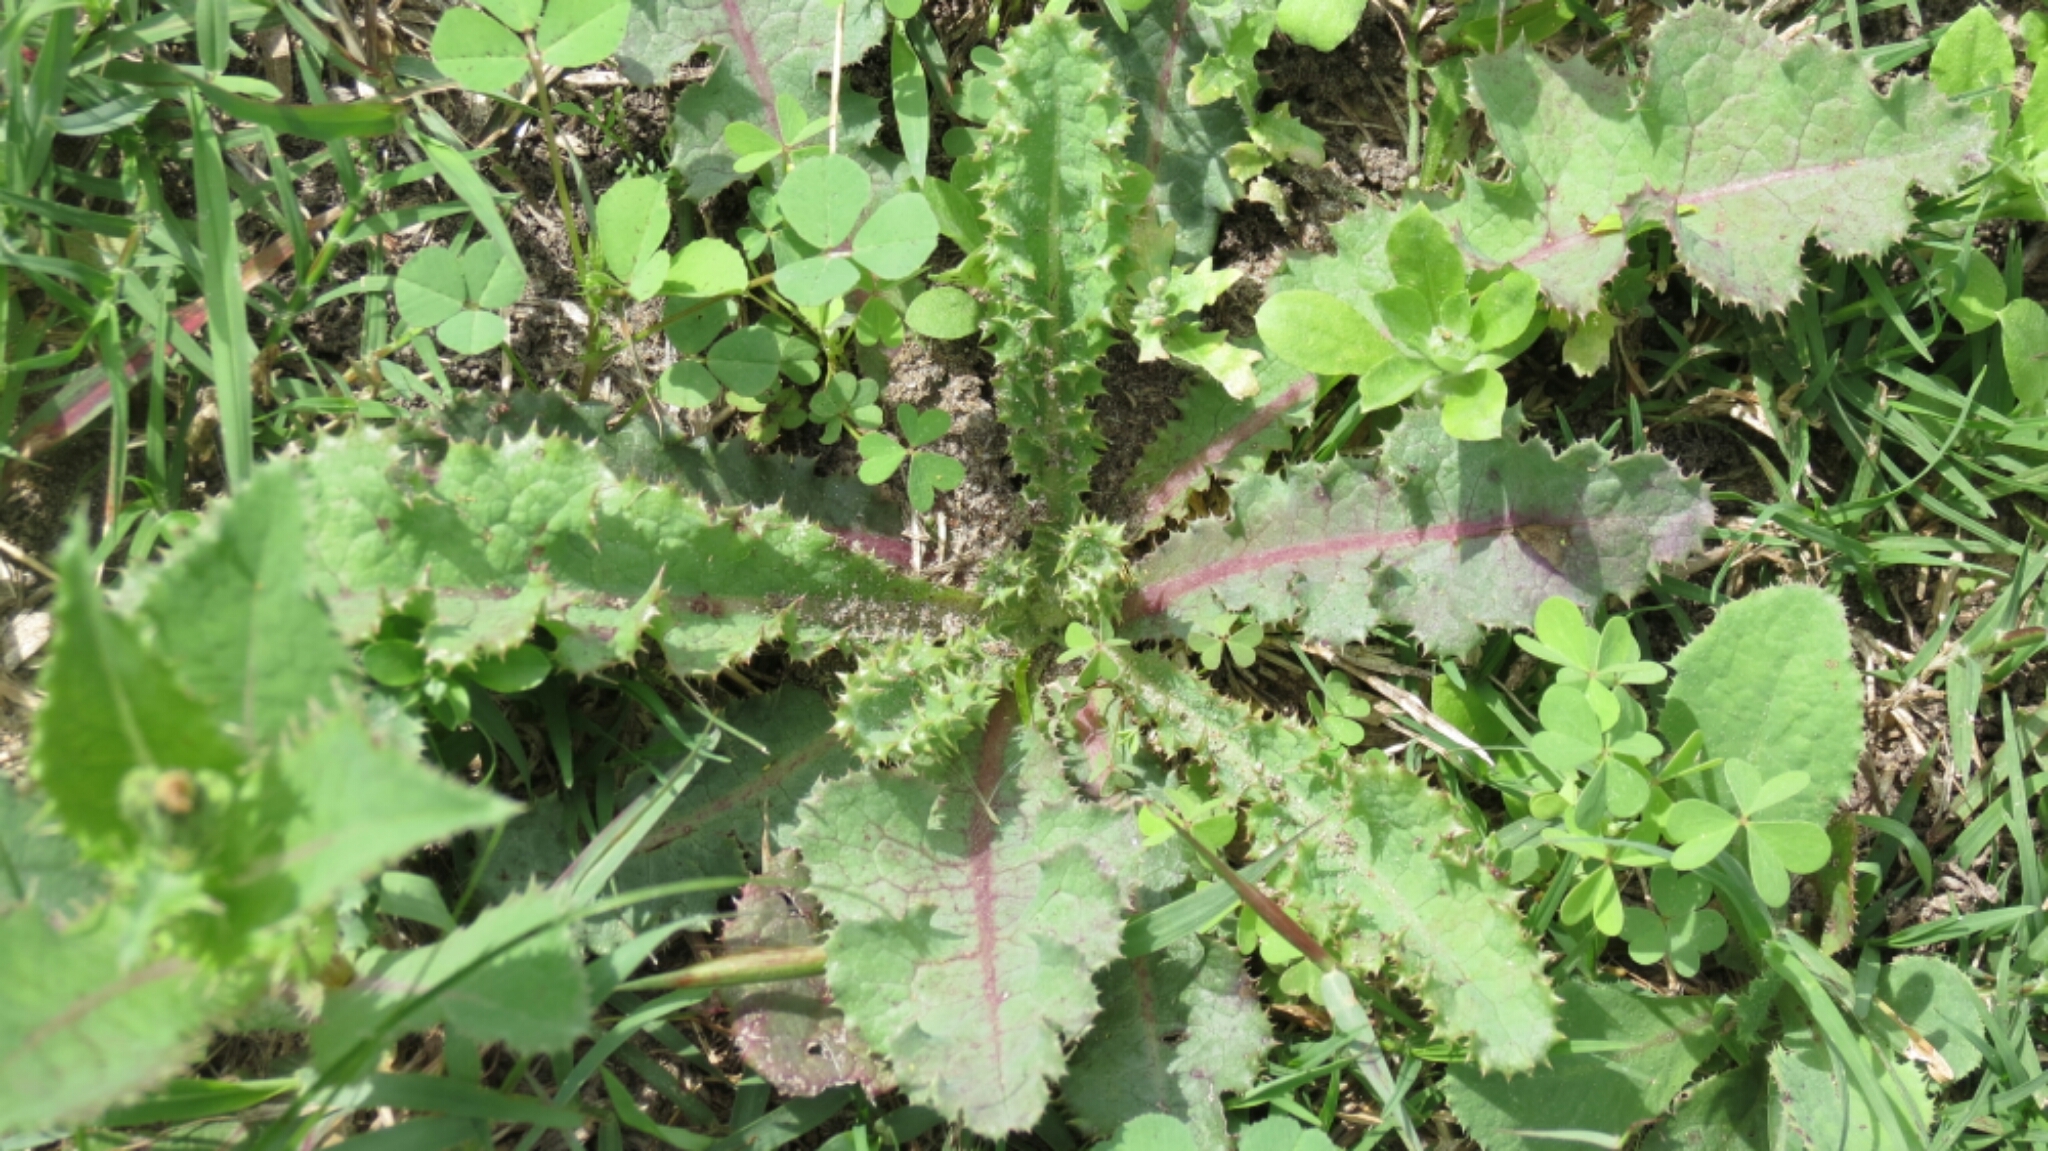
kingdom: Plantae
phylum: Tracheophyta
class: Magnoliopsida
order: Asterales
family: Asteraceae
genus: Sonchus
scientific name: Sonchus asper
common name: Prickly sow-thistle
